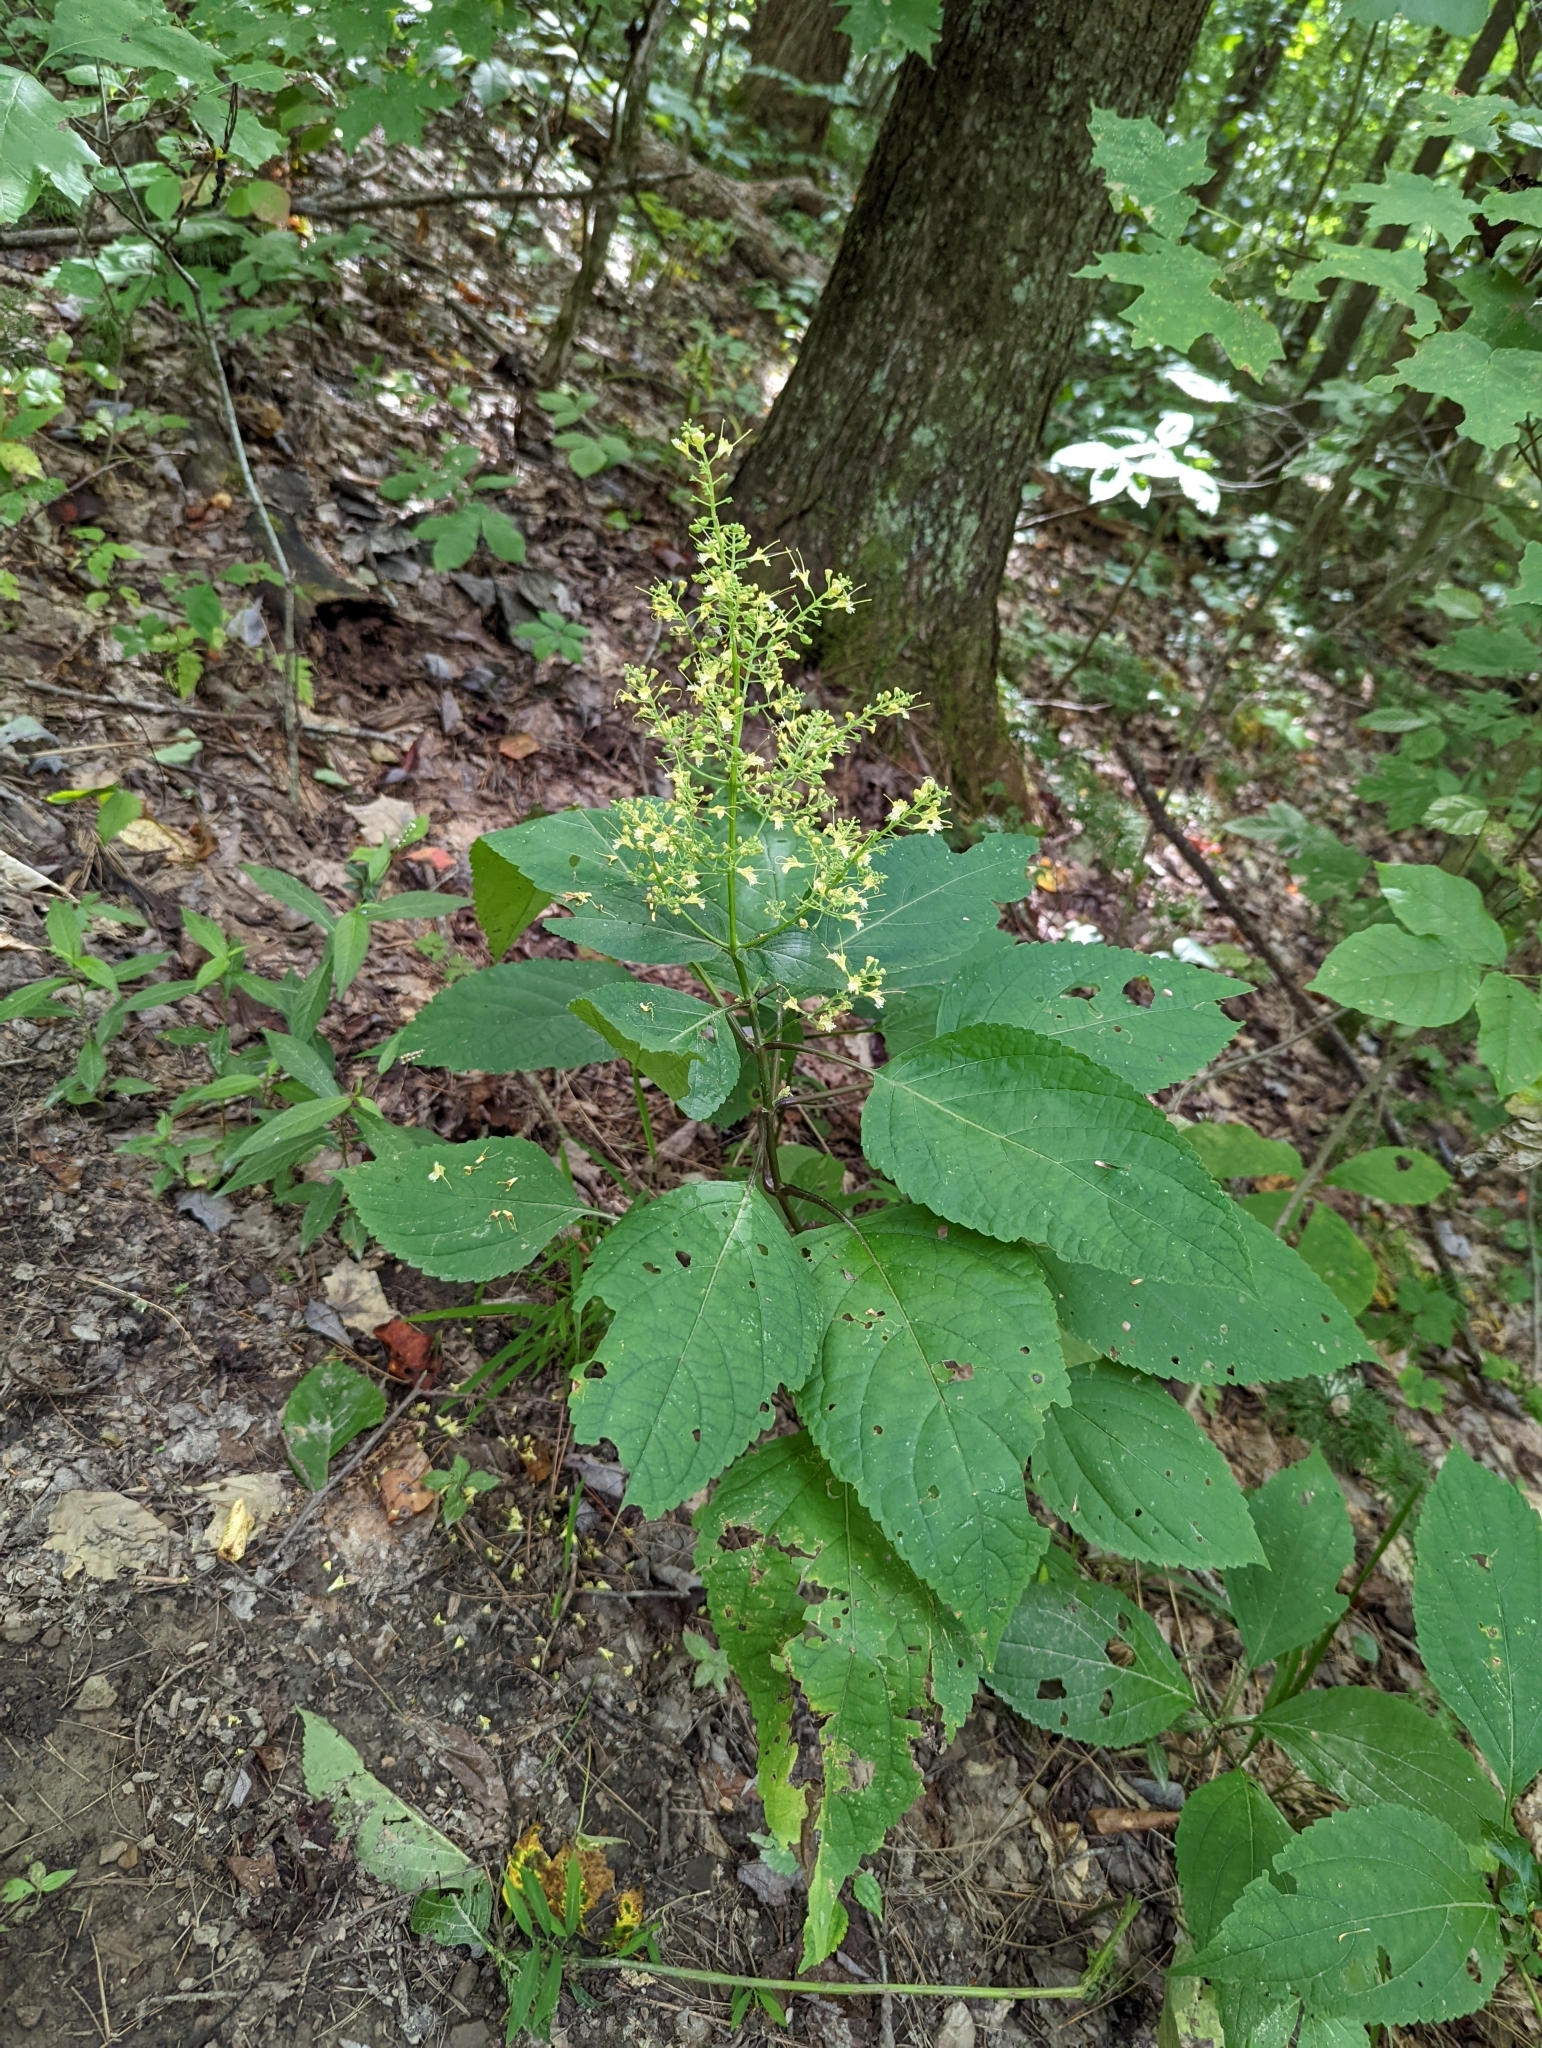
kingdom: Plantae
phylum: Tracheophyta
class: Magnoliopsida
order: Lamiales
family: Lamiaceae
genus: Collinsonia
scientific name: Collinsonia canadensis
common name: Northern horsebalm
